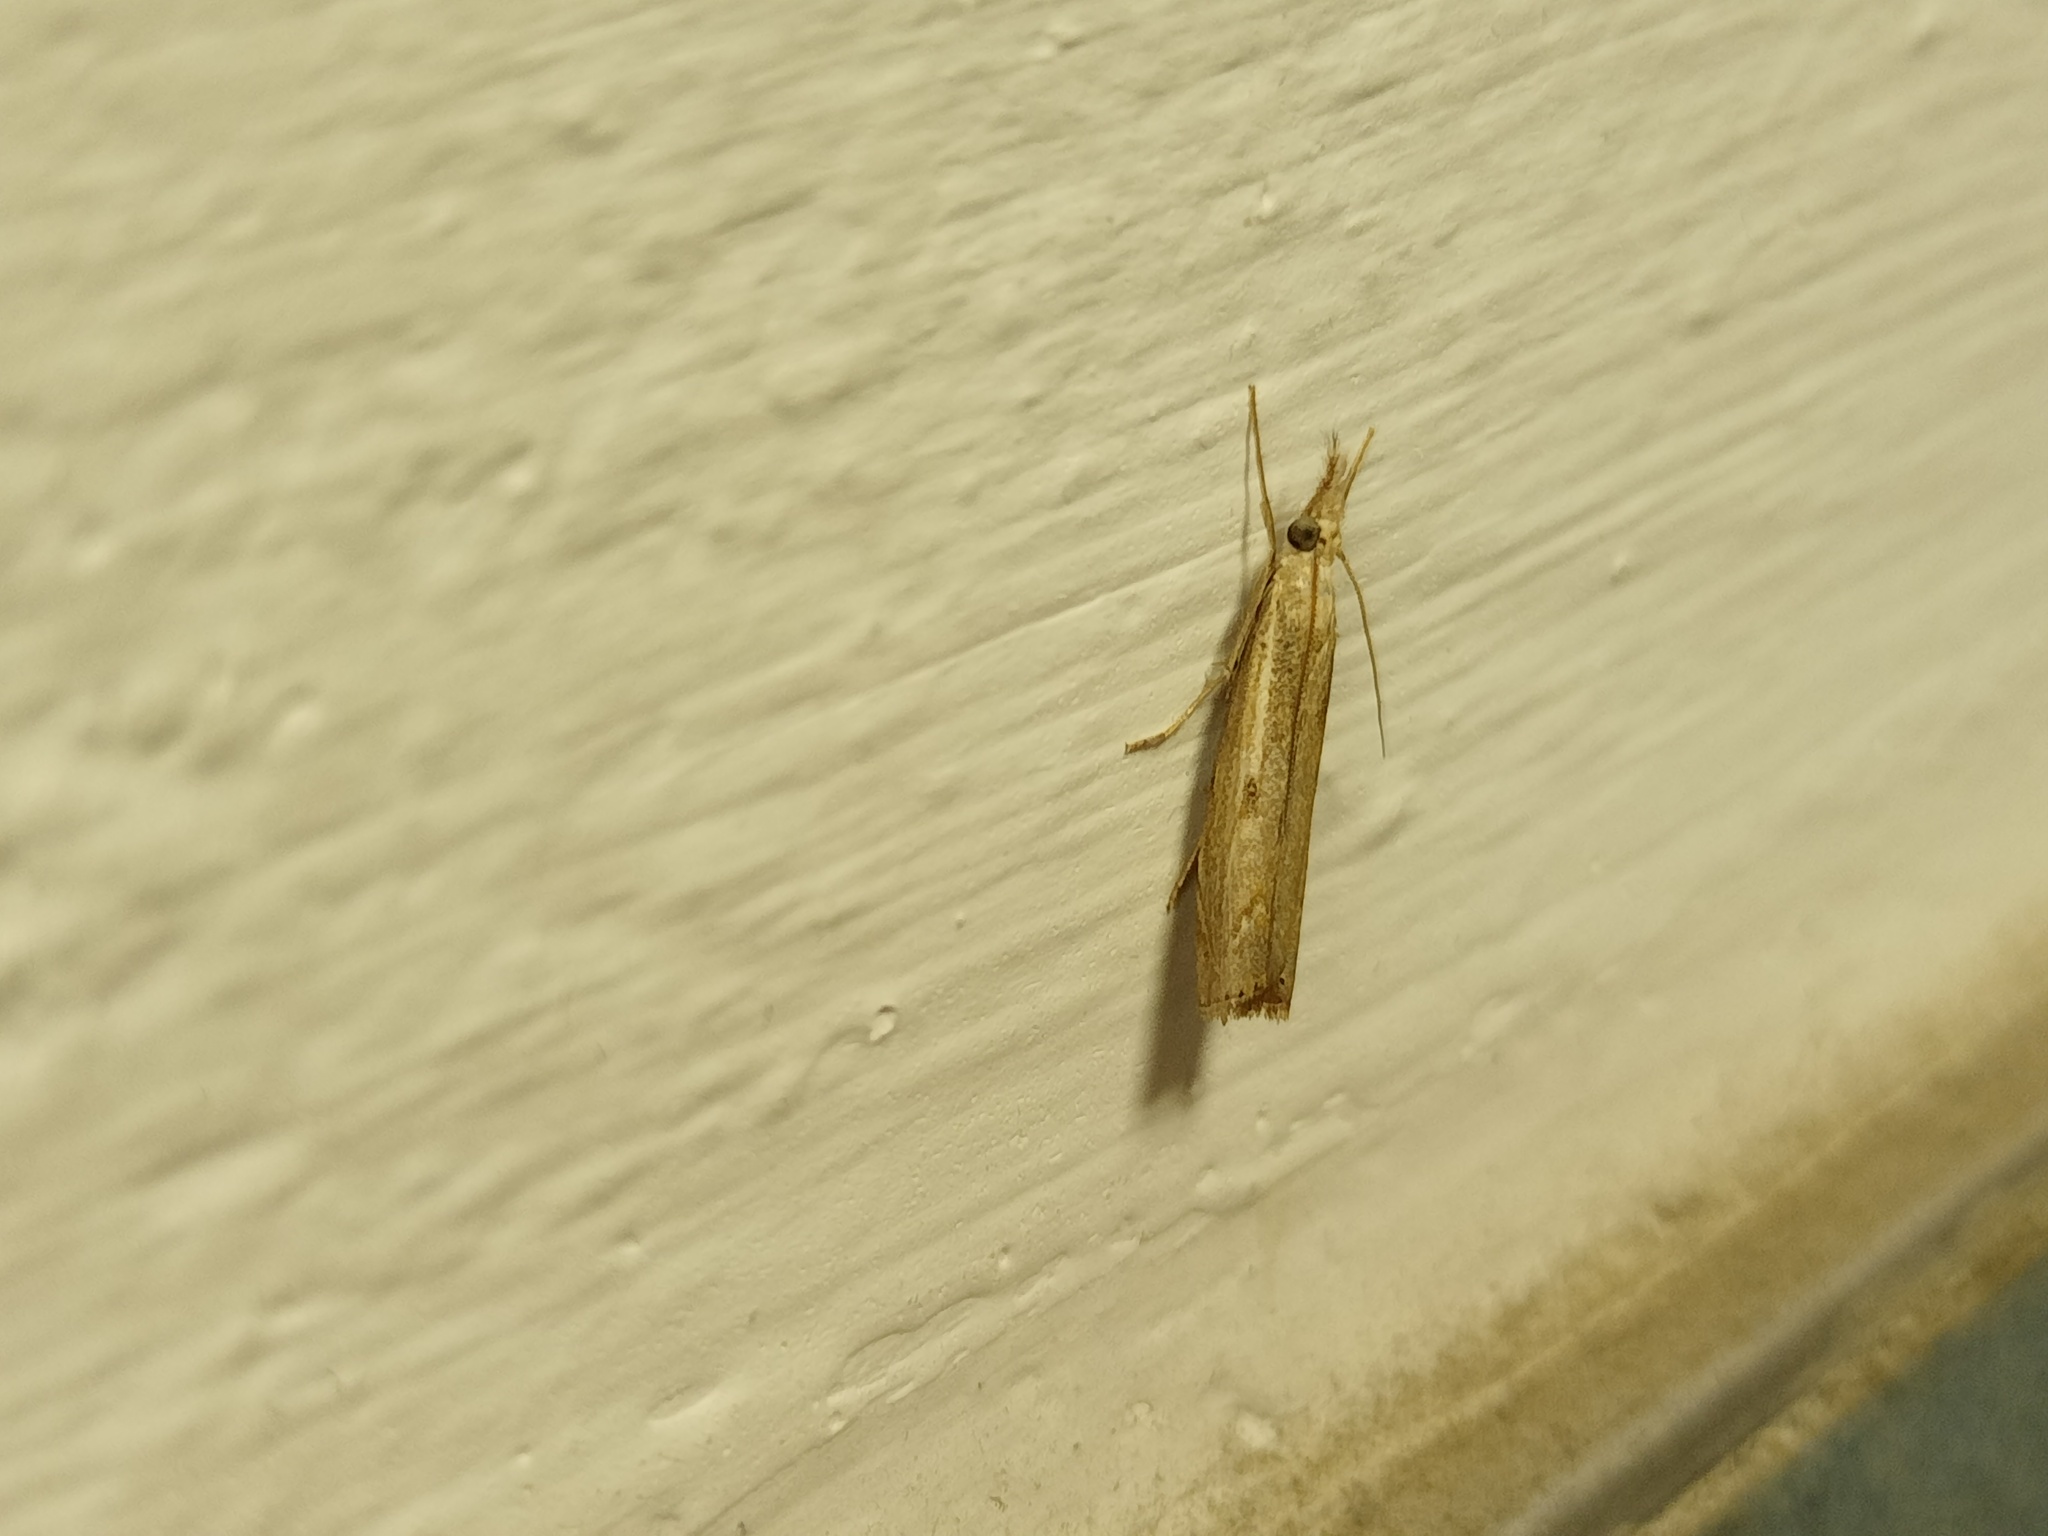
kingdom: Animalia
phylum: Arthropoda
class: Insecta
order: Lepidoptera
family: Crambidae
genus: Agriphila
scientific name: Agriphila geniculea
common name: Elbow-stripe grass-veneer
